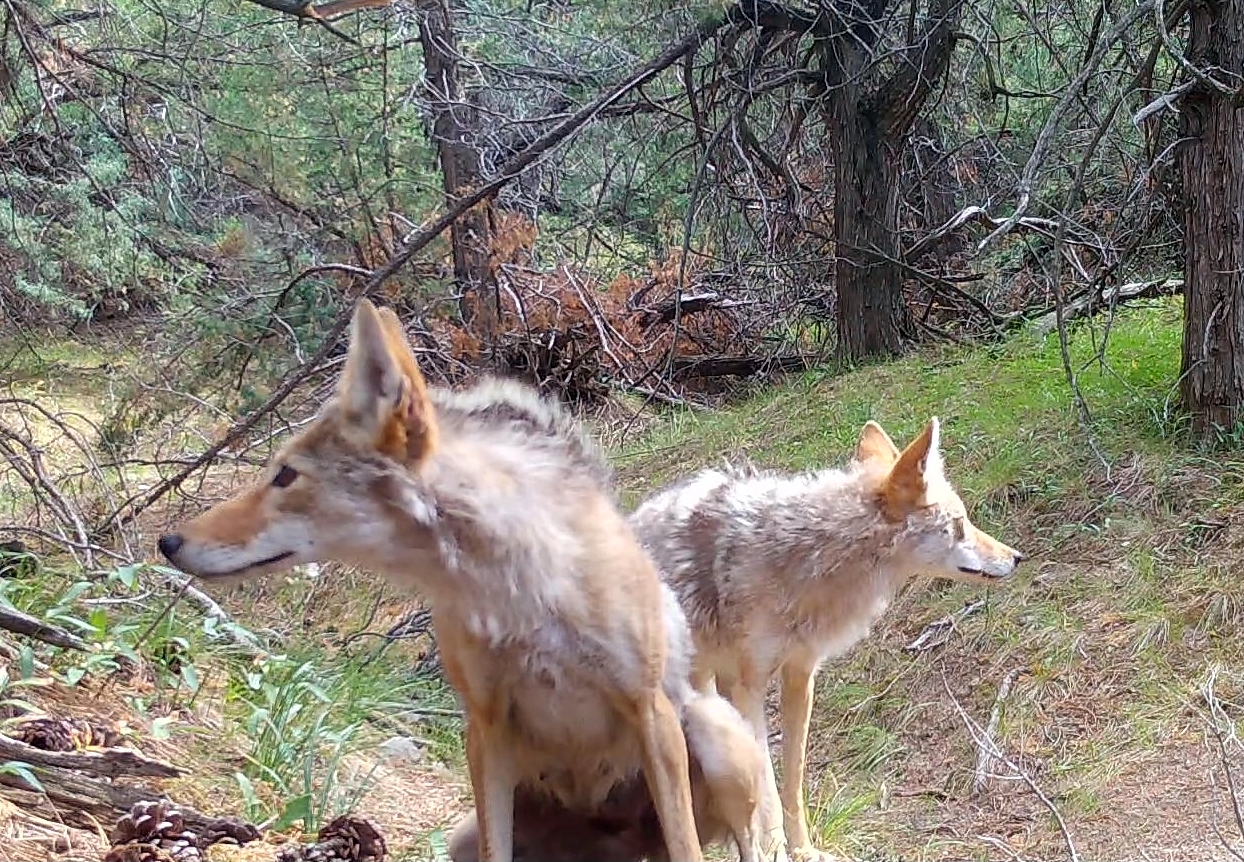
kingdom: Animalia
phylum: Chordata
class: Mammalia
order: Carnivora
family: Canidae
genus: Canis
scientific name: Canis latrans
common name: Coyote
